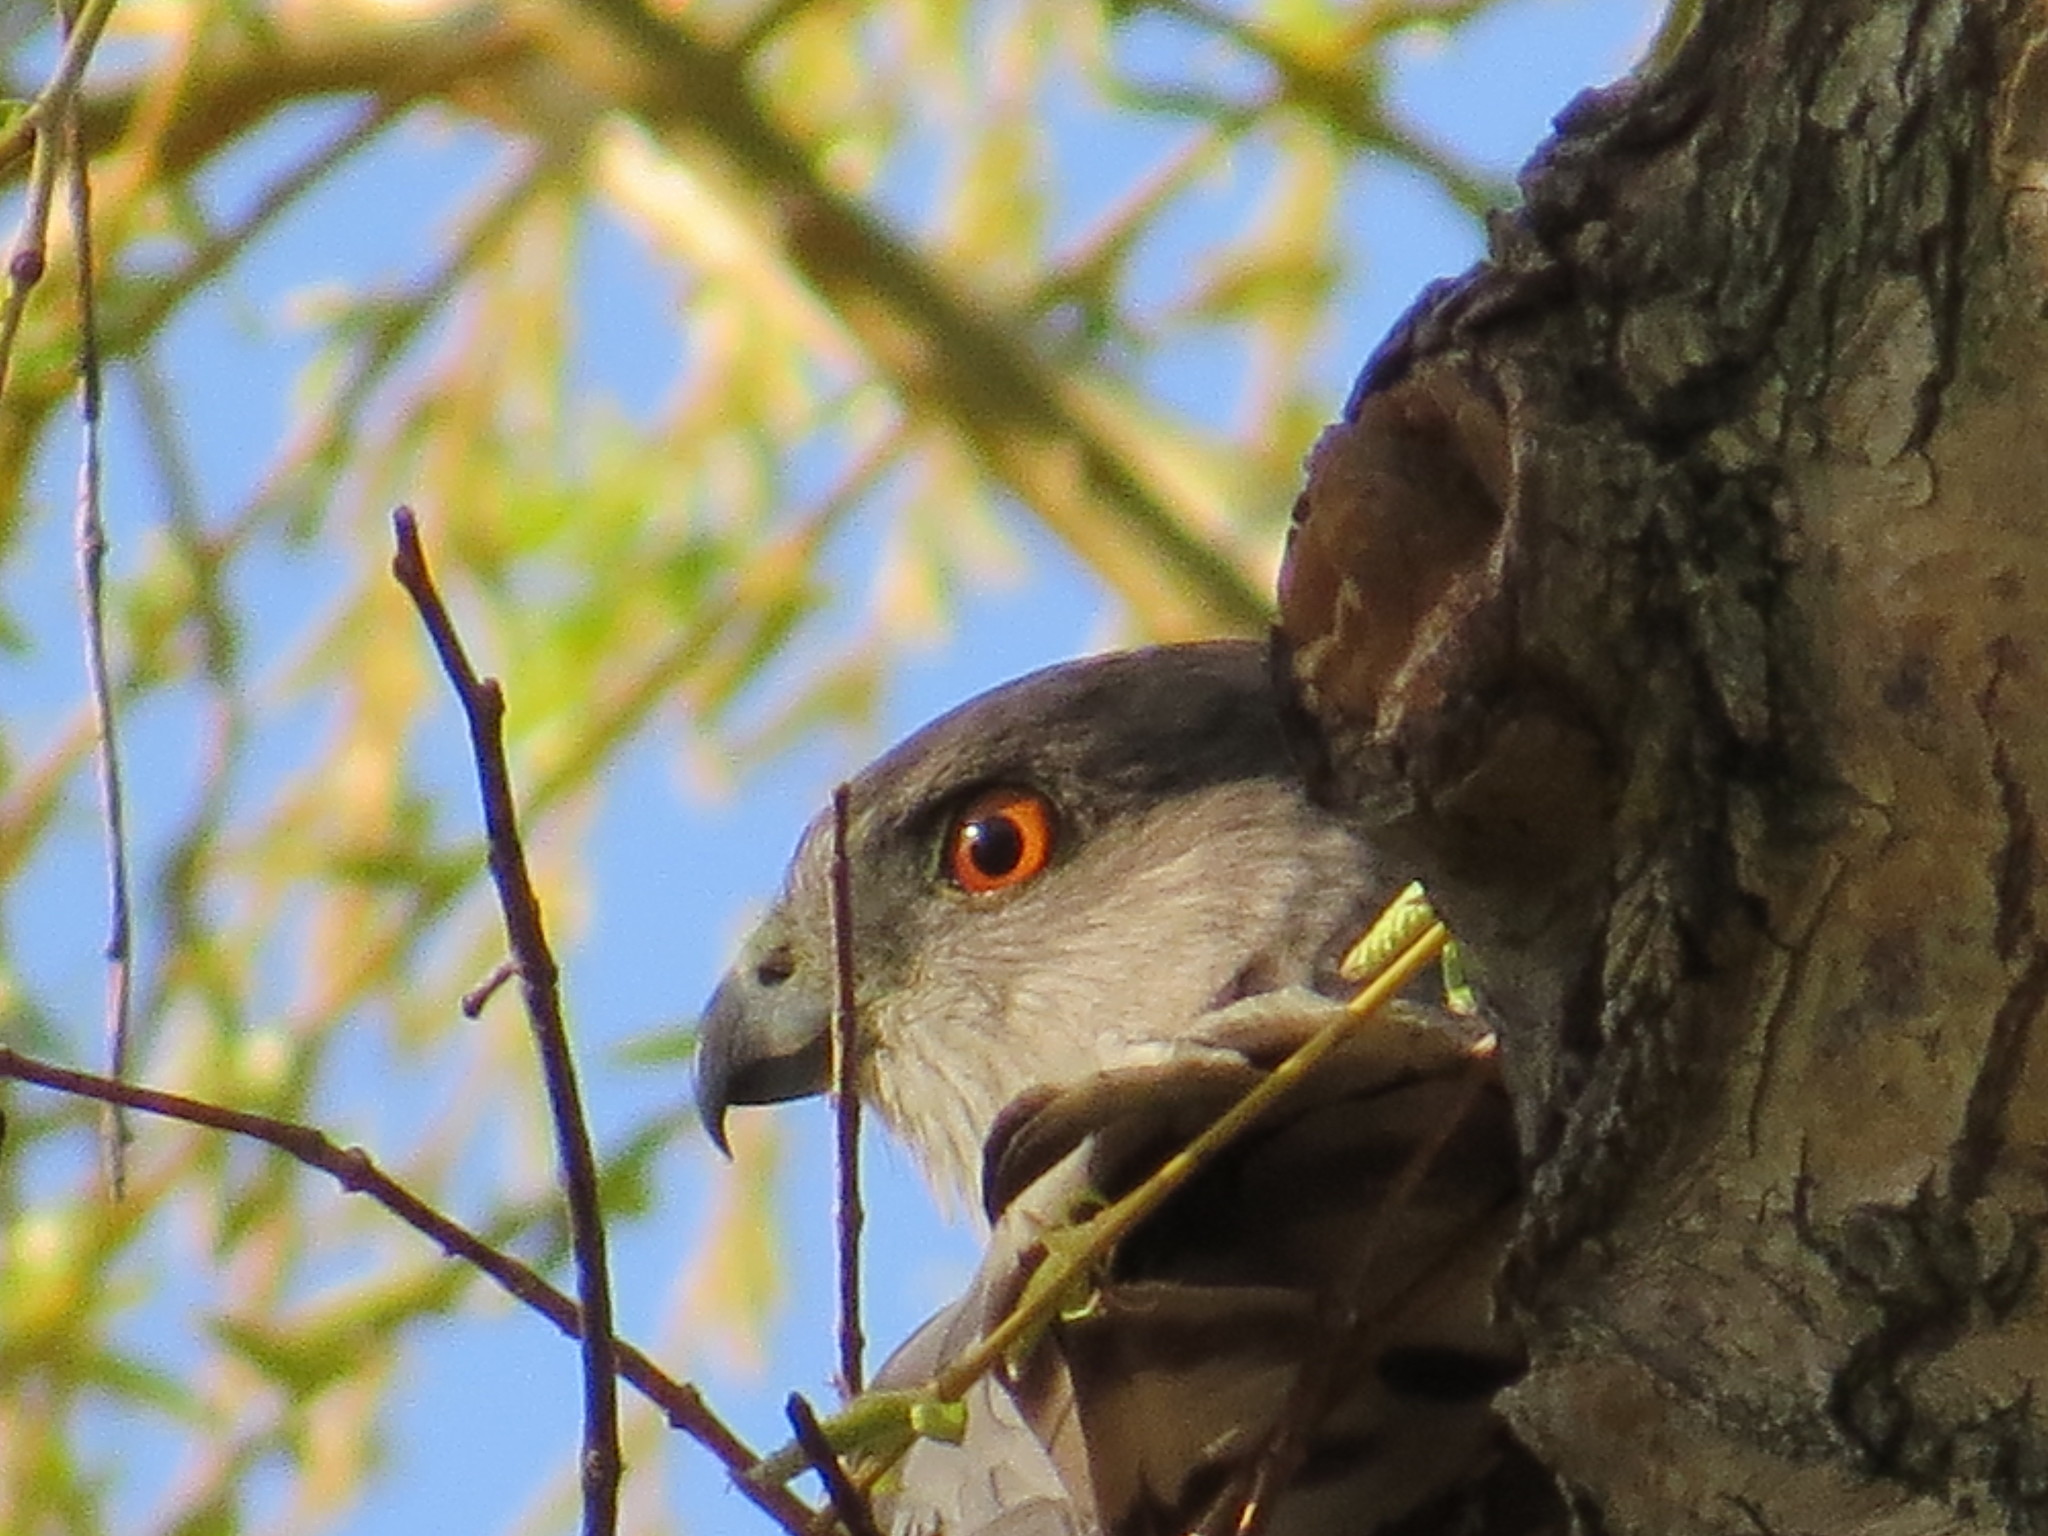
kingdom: Animalia
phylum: Chordata
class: Aves
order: Accipitriformes
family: Accipitridae
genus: Accipiter
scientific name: Accipiter cooperii
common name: Cooper's hawk
